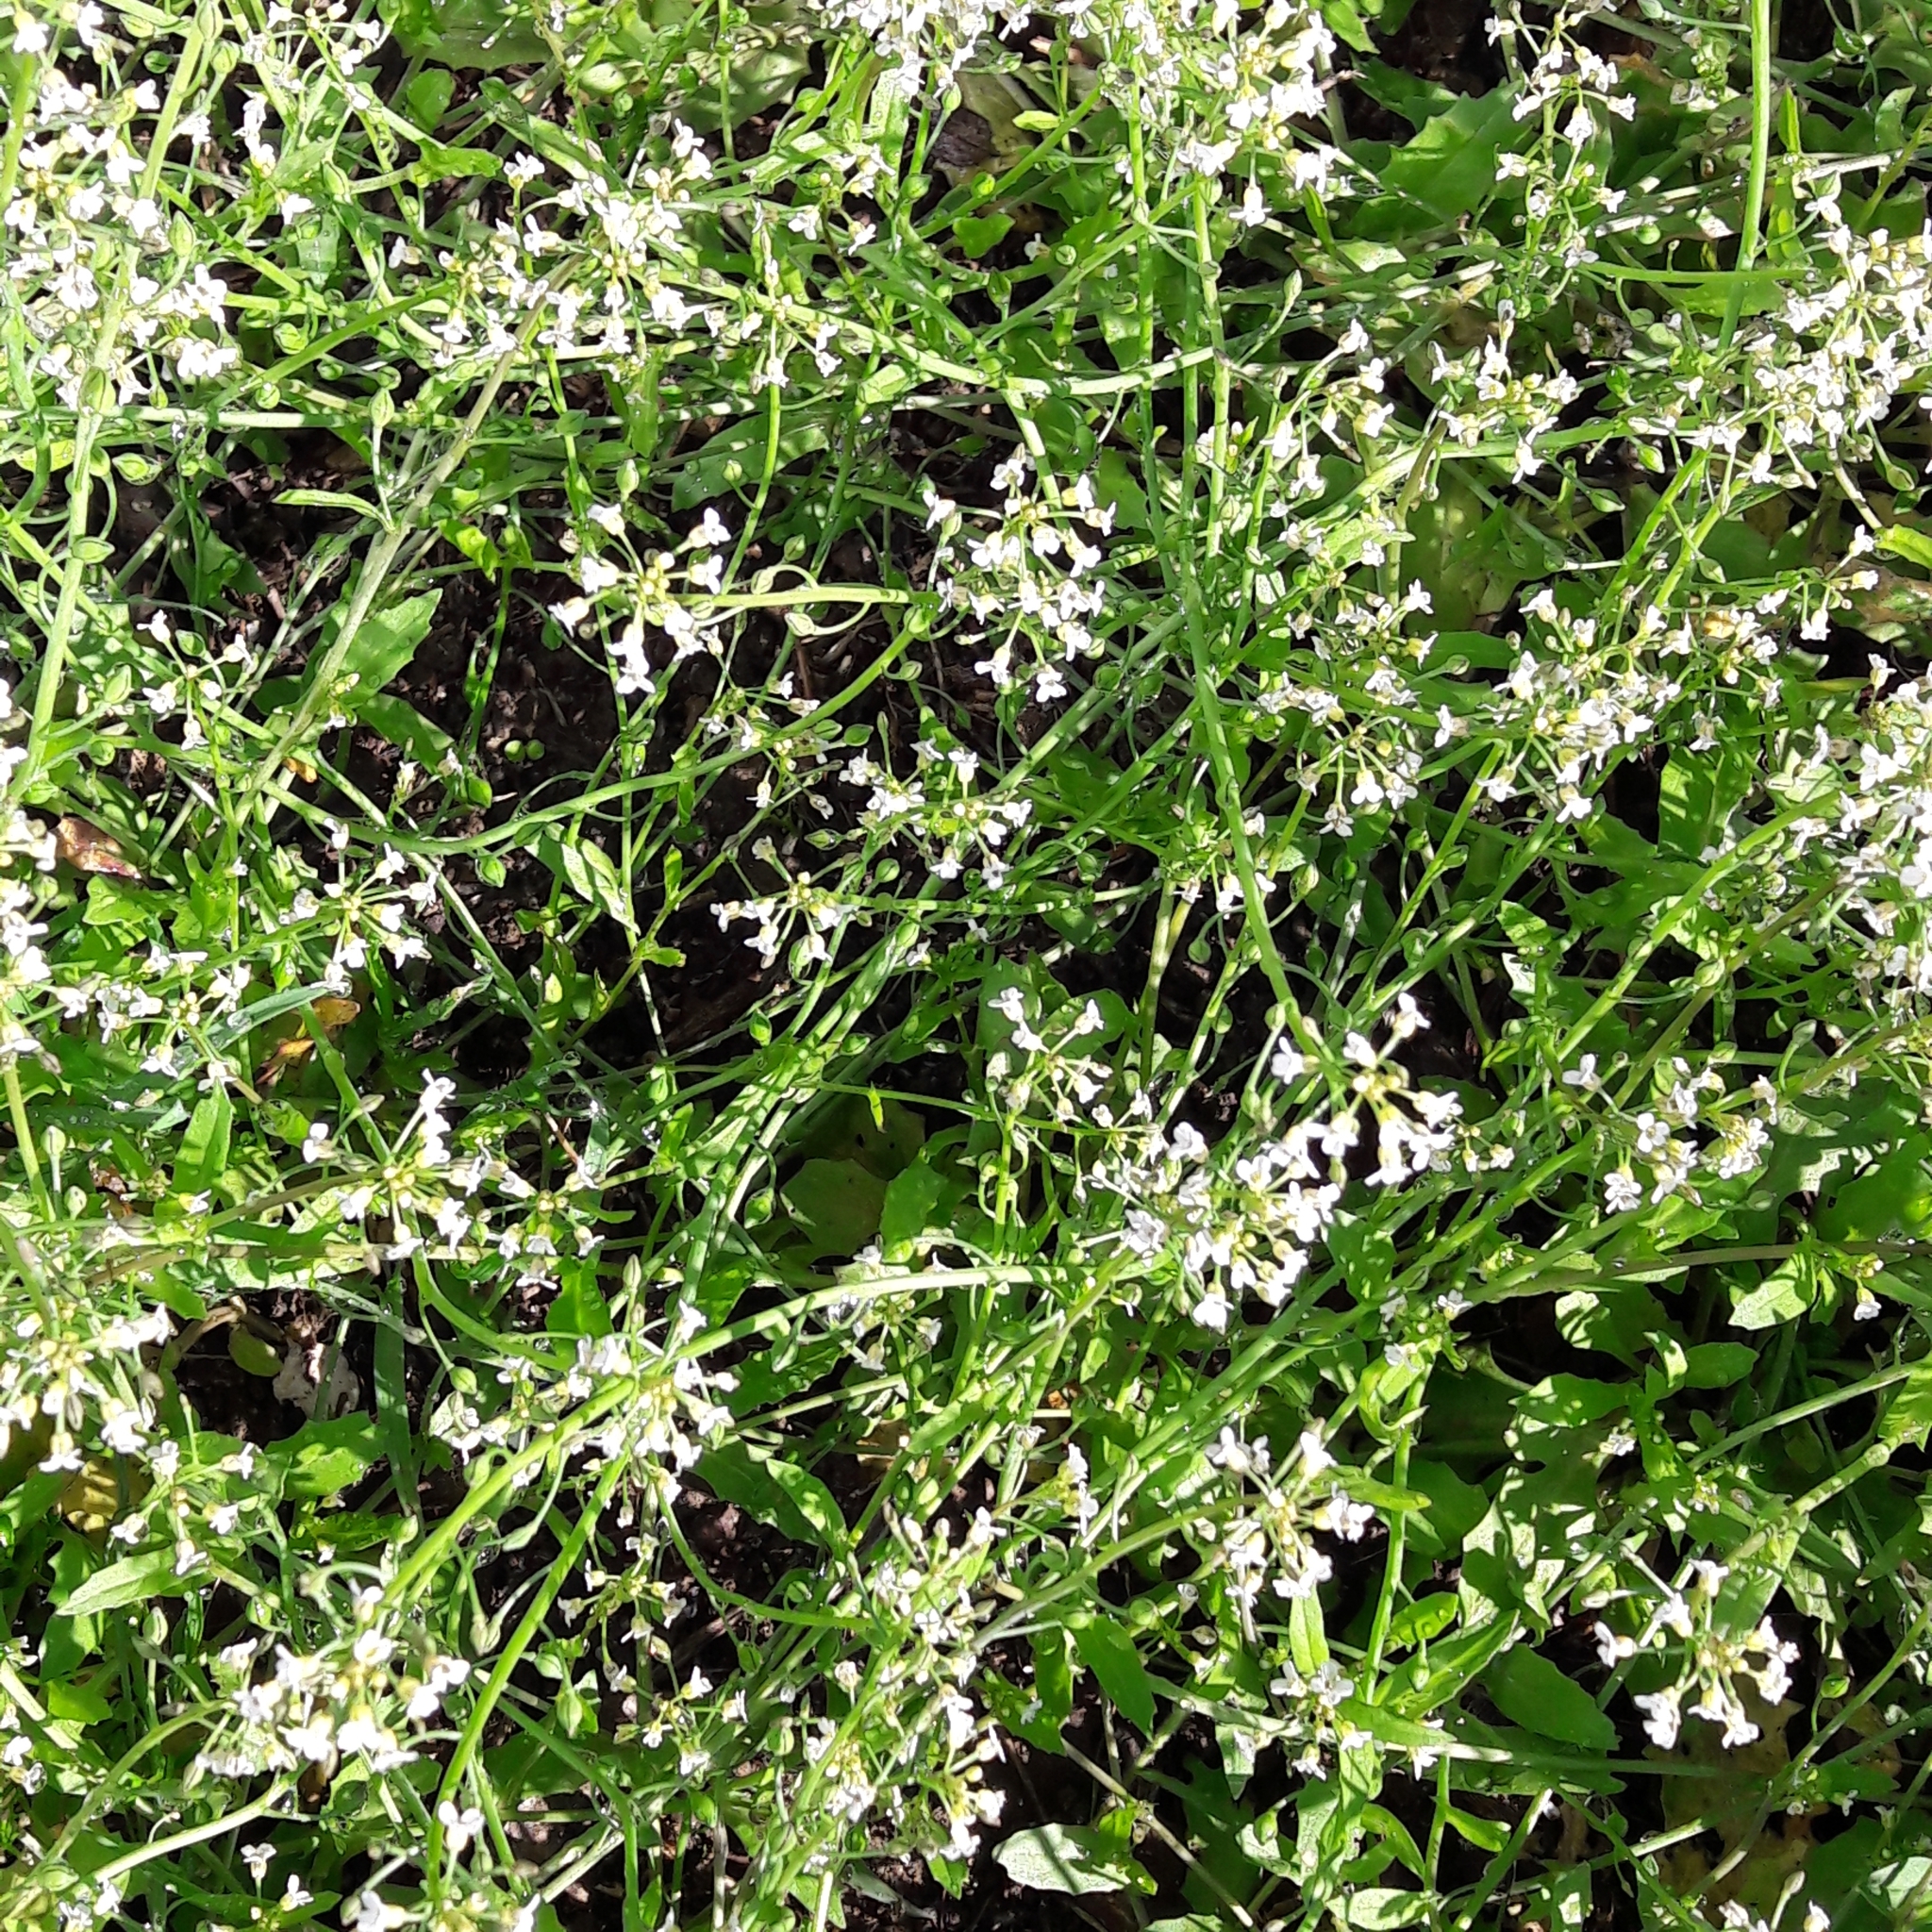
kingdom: Plantae
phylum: Tracheophyta
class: Magnoliopsida
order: Brassicales
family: Brassicaceae
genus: Capsella
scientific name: Capsella bursa-pastoris
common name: Shepherd's purse
